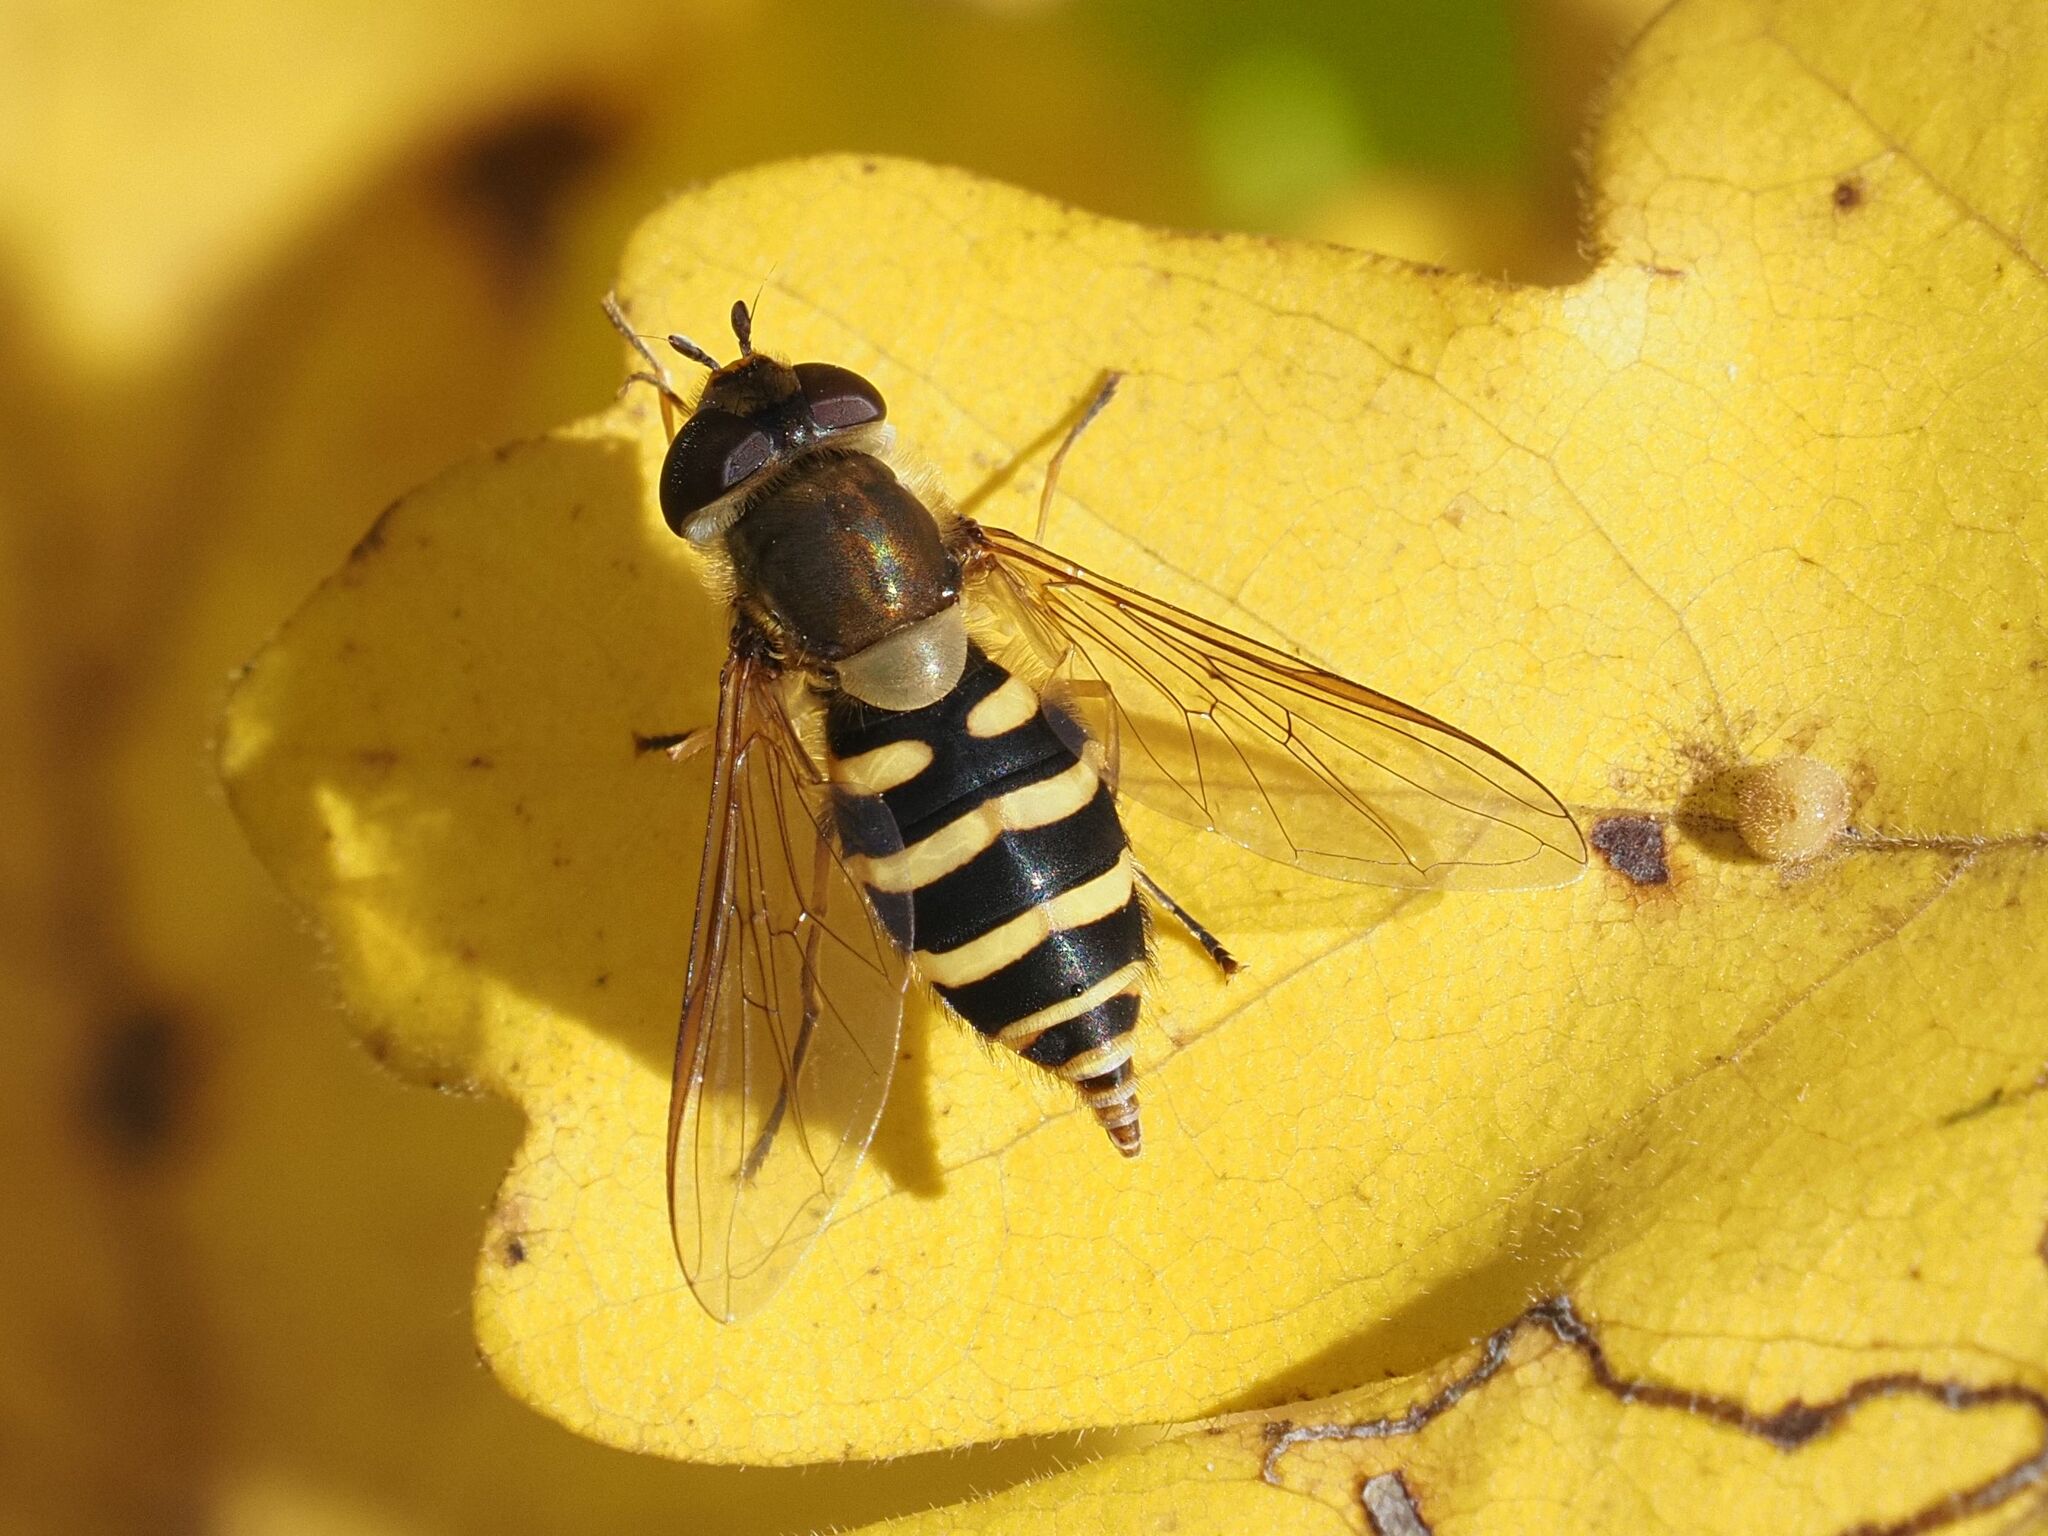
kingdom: Animalia
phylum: Arthropoda
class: Insecta
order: Diptera
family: Syrphidae
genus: Syrphus
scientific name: Syrphus
